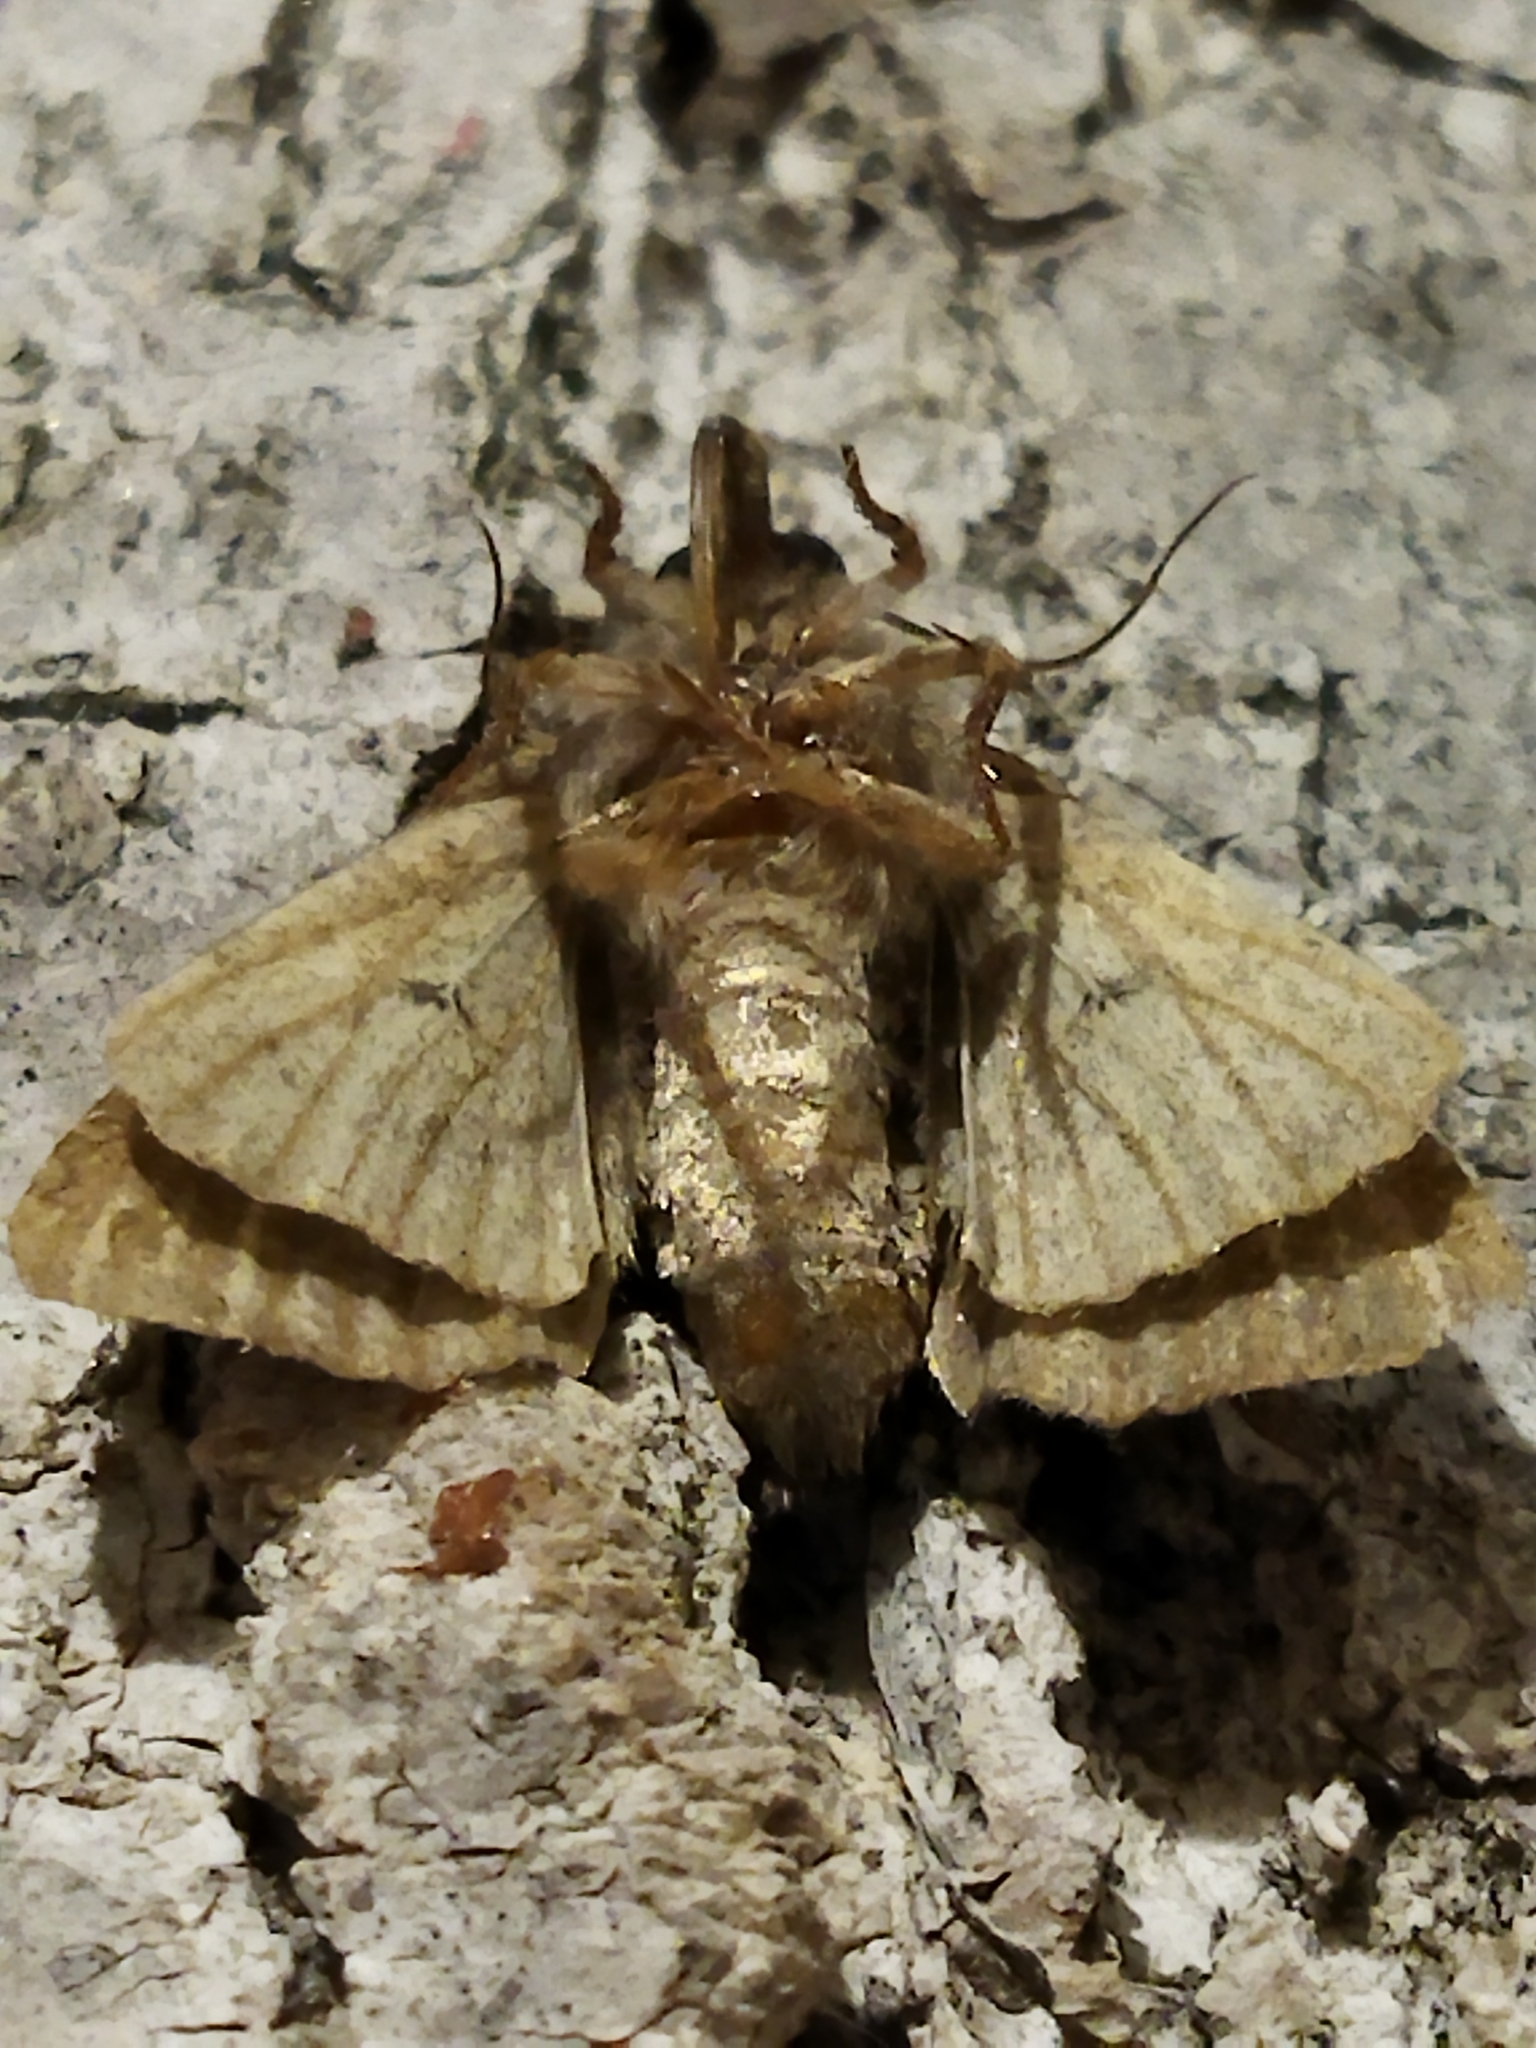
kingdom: Animalia
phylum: Arthropoda
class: Insecta
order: Lepidoptera
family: Noctuidae
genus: Dypterygia
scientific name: Dypterygia scabriuscula
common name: Bird's wing
